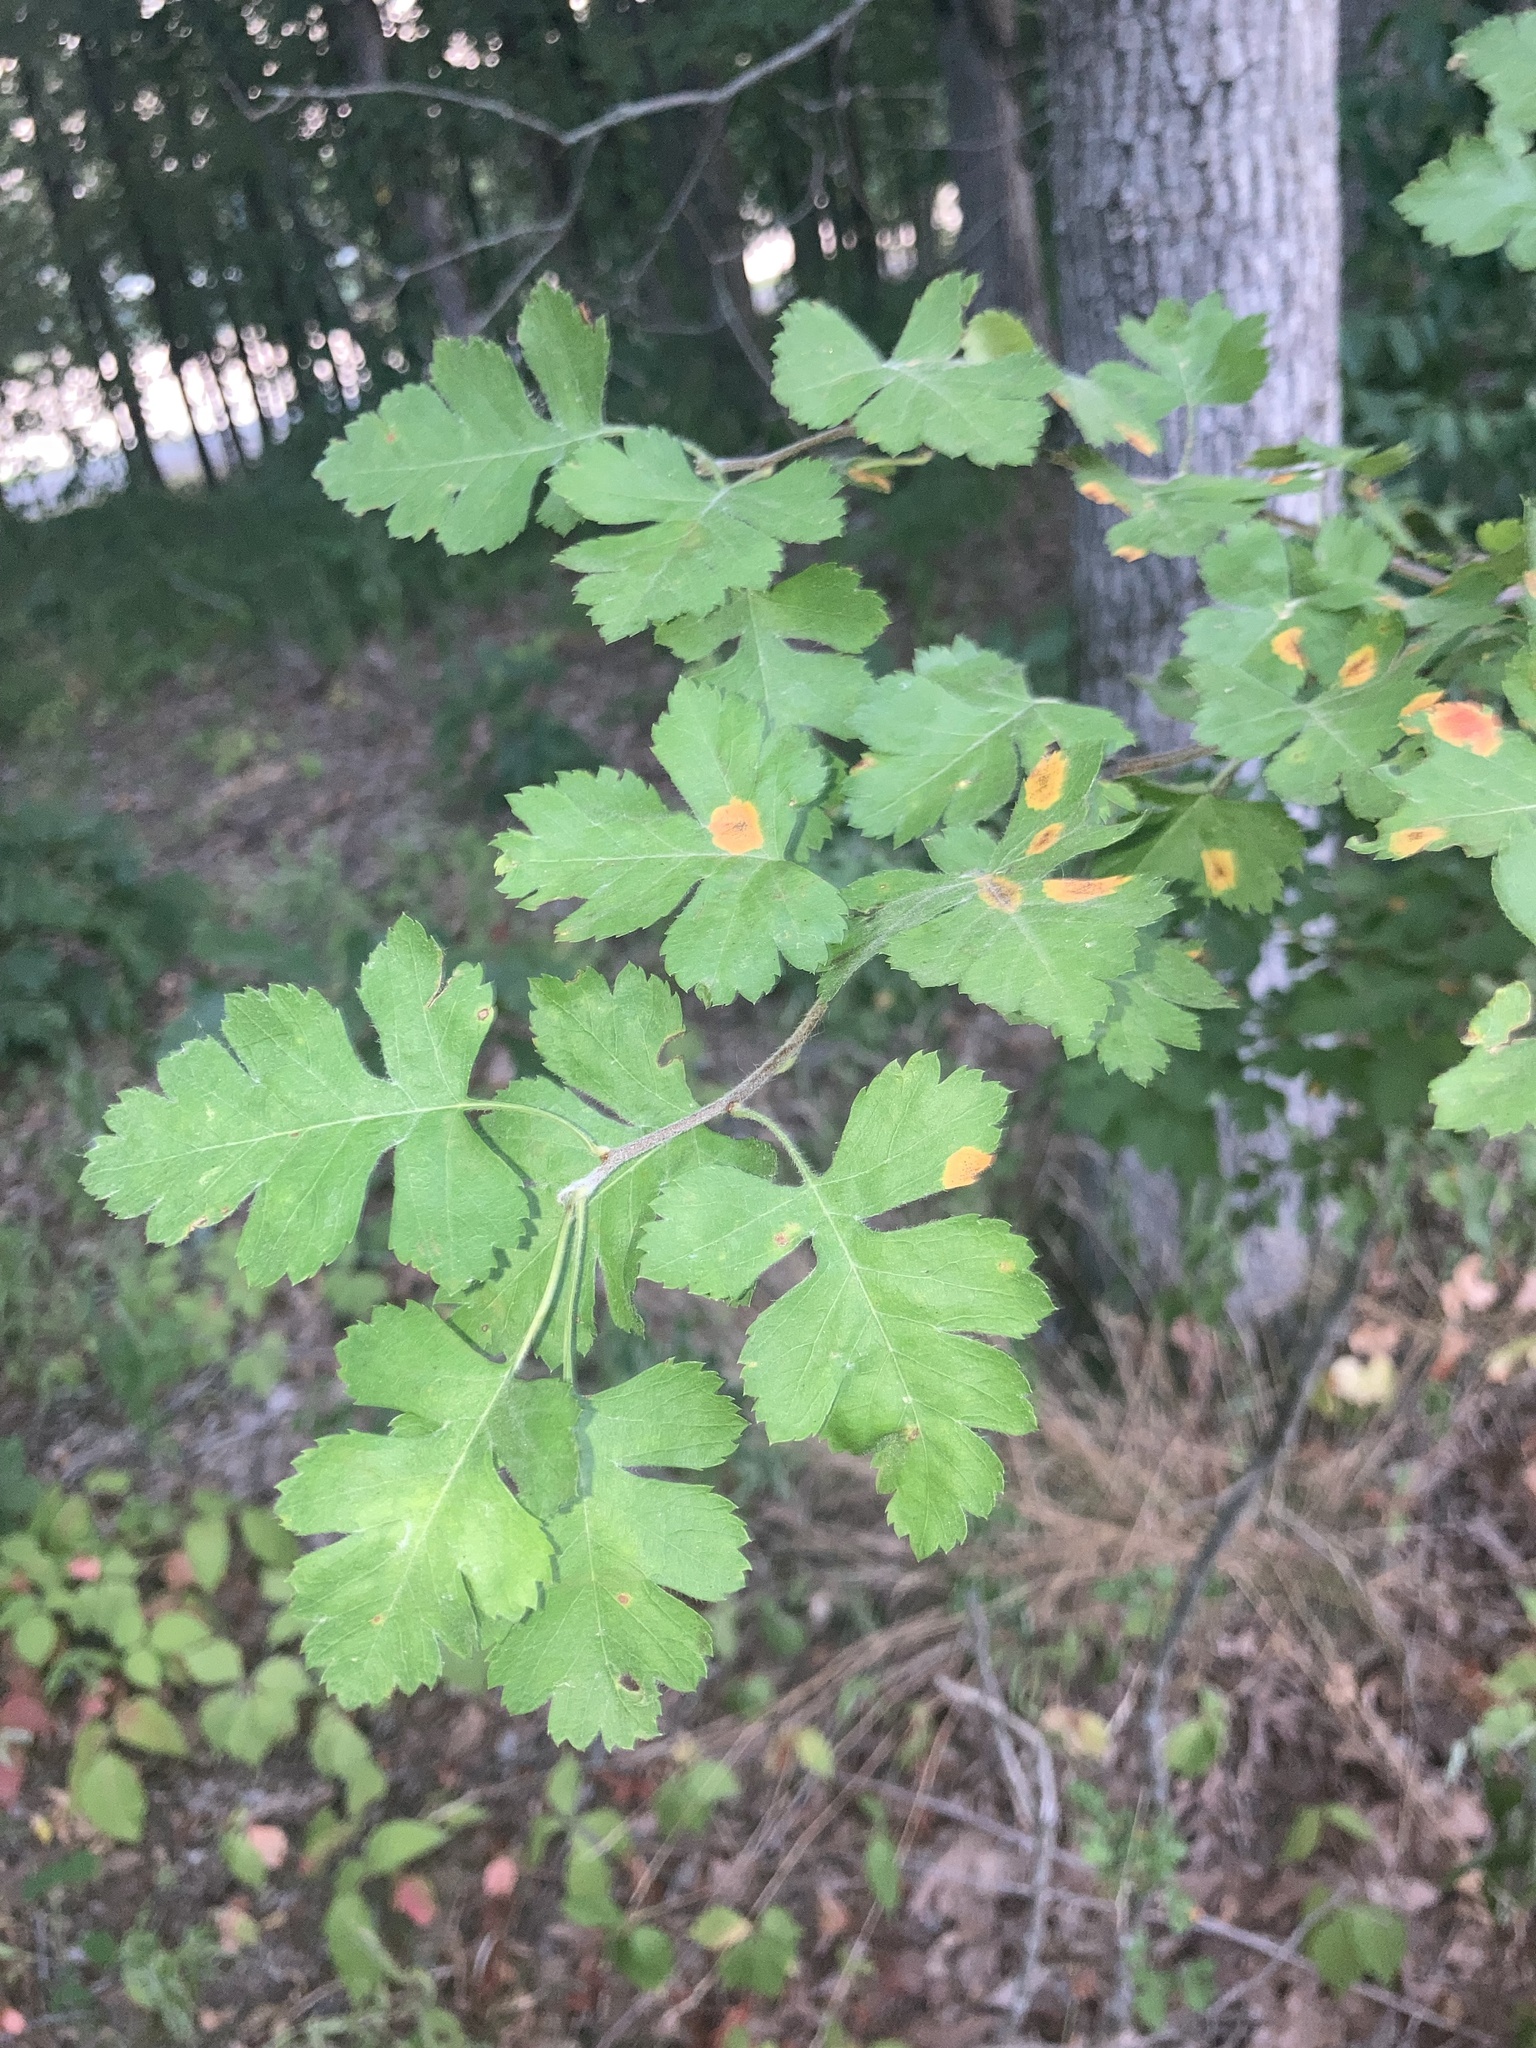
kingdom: Plantae
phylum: Tracheophyta
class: Magnoliopsida
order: Rosales
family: Rosaceae
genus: Crataegus
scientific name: Crataegus marshallii
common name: Parsley-hawthorn
